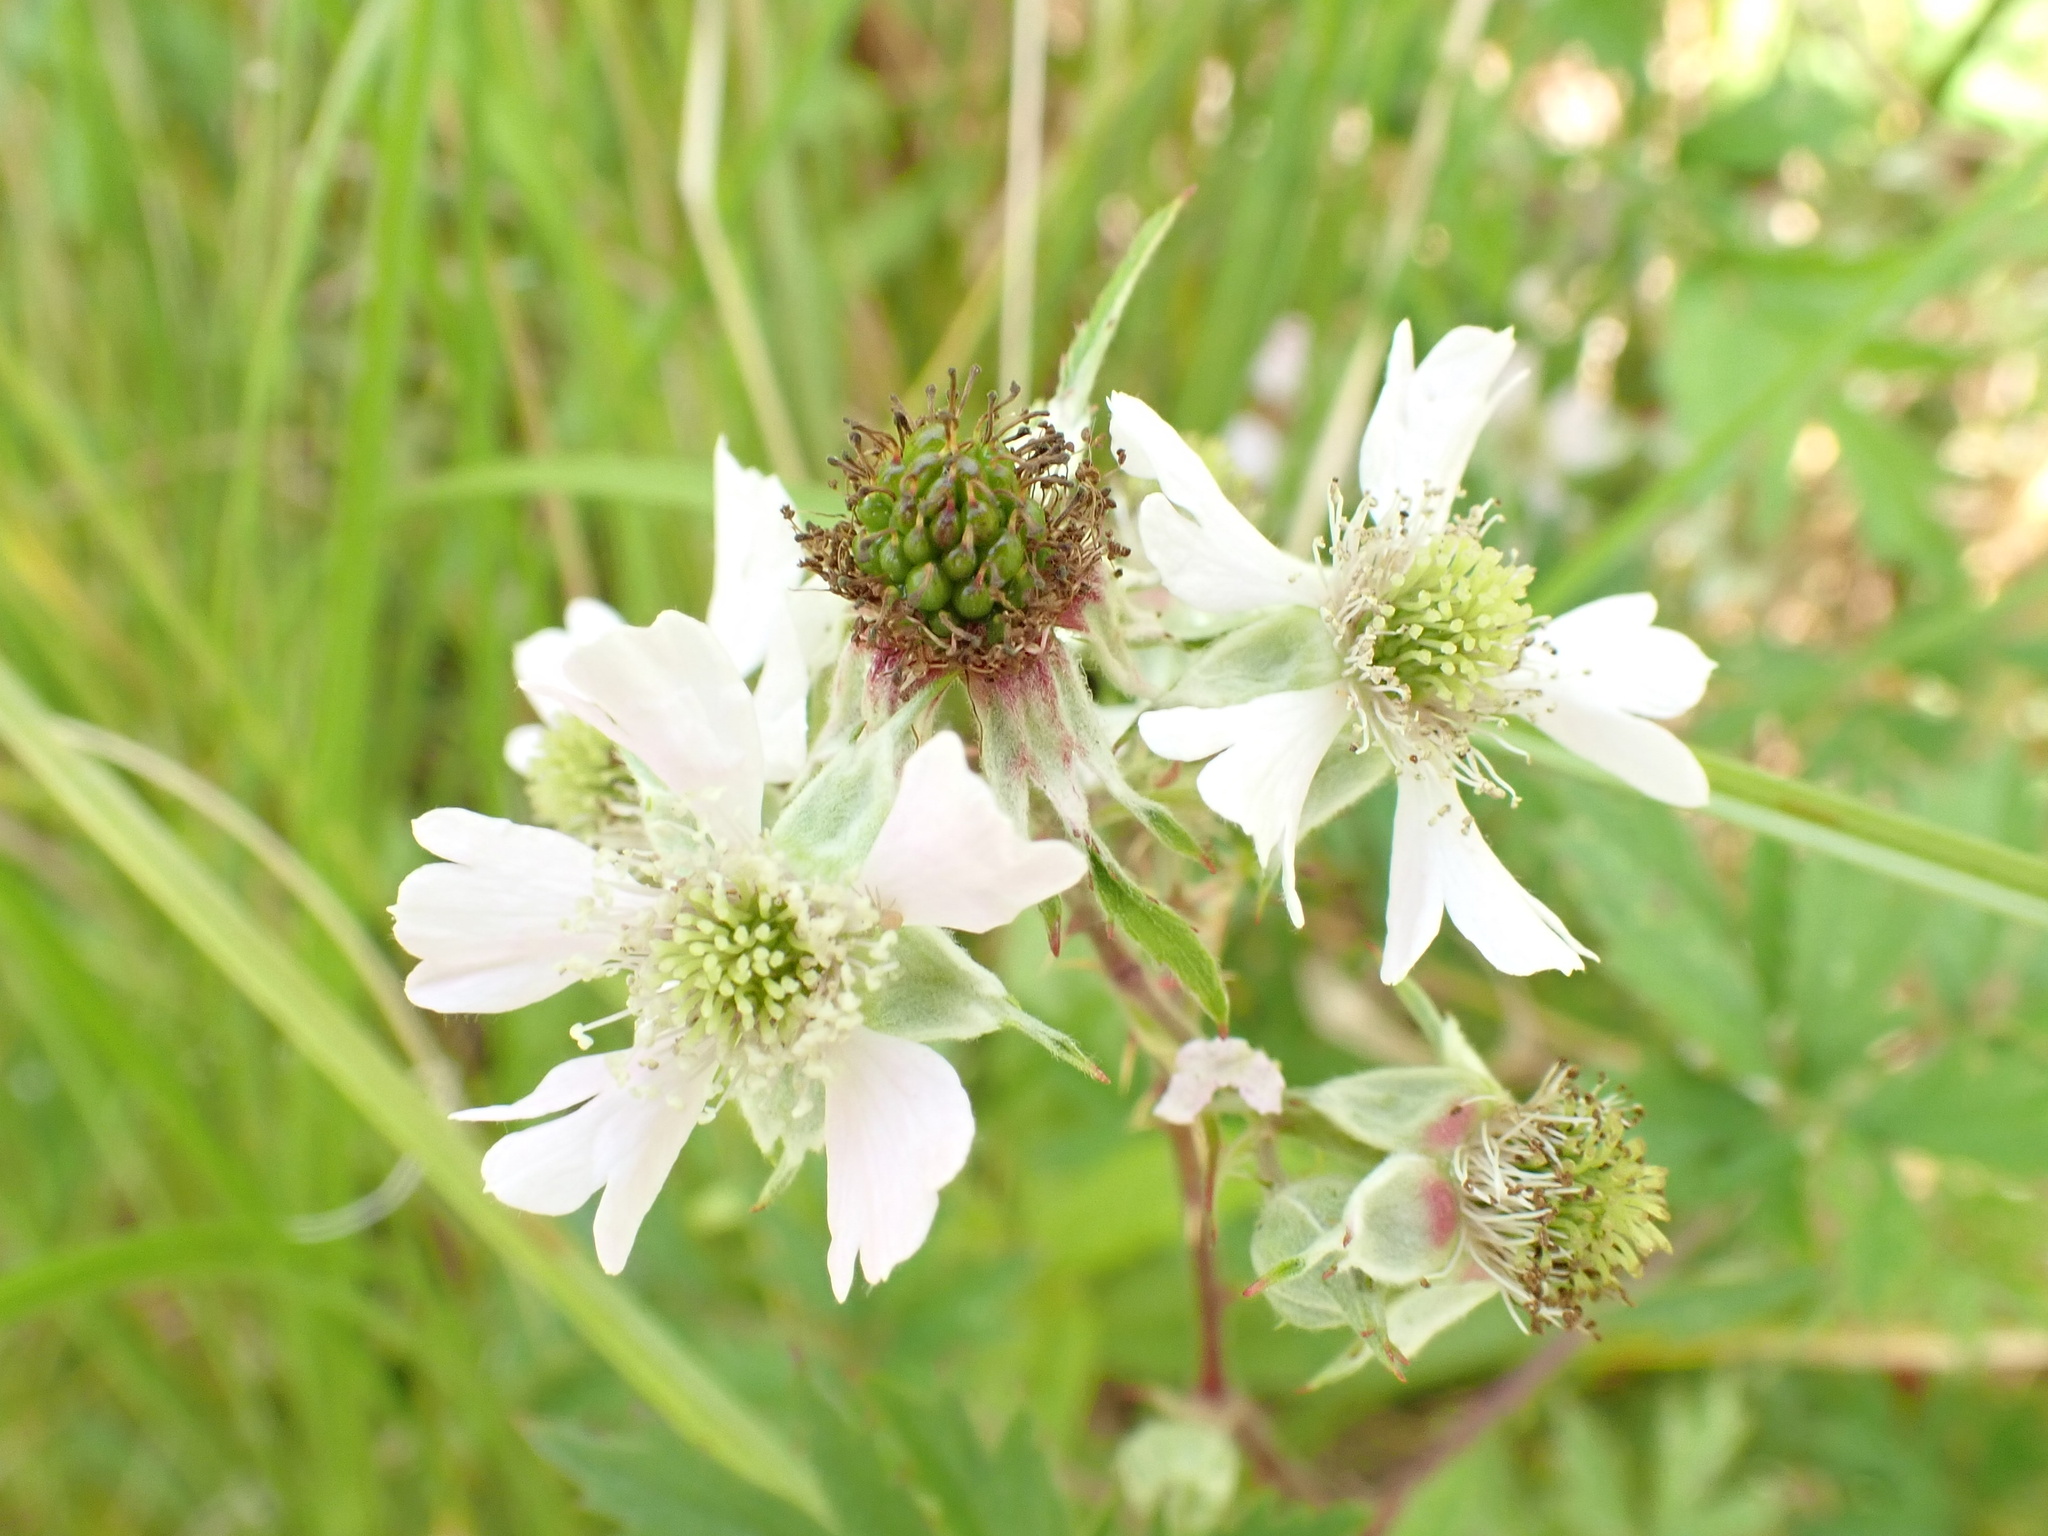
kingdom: Plantae
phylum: Tracheophyta
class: Magnoliopsida
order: Rosales
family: Rosaceae
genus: Rubus
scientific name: Rubus laciniatus
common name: Evergreen blackberry
